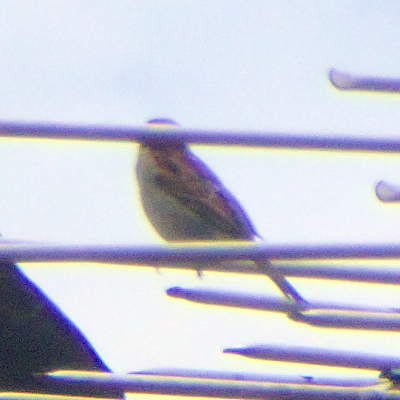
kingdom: Animalia
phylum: Chordata
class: Aves
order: Passeriformes
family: Passeridae
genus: Passer
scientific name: Passer domesticus
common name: House sparrow
